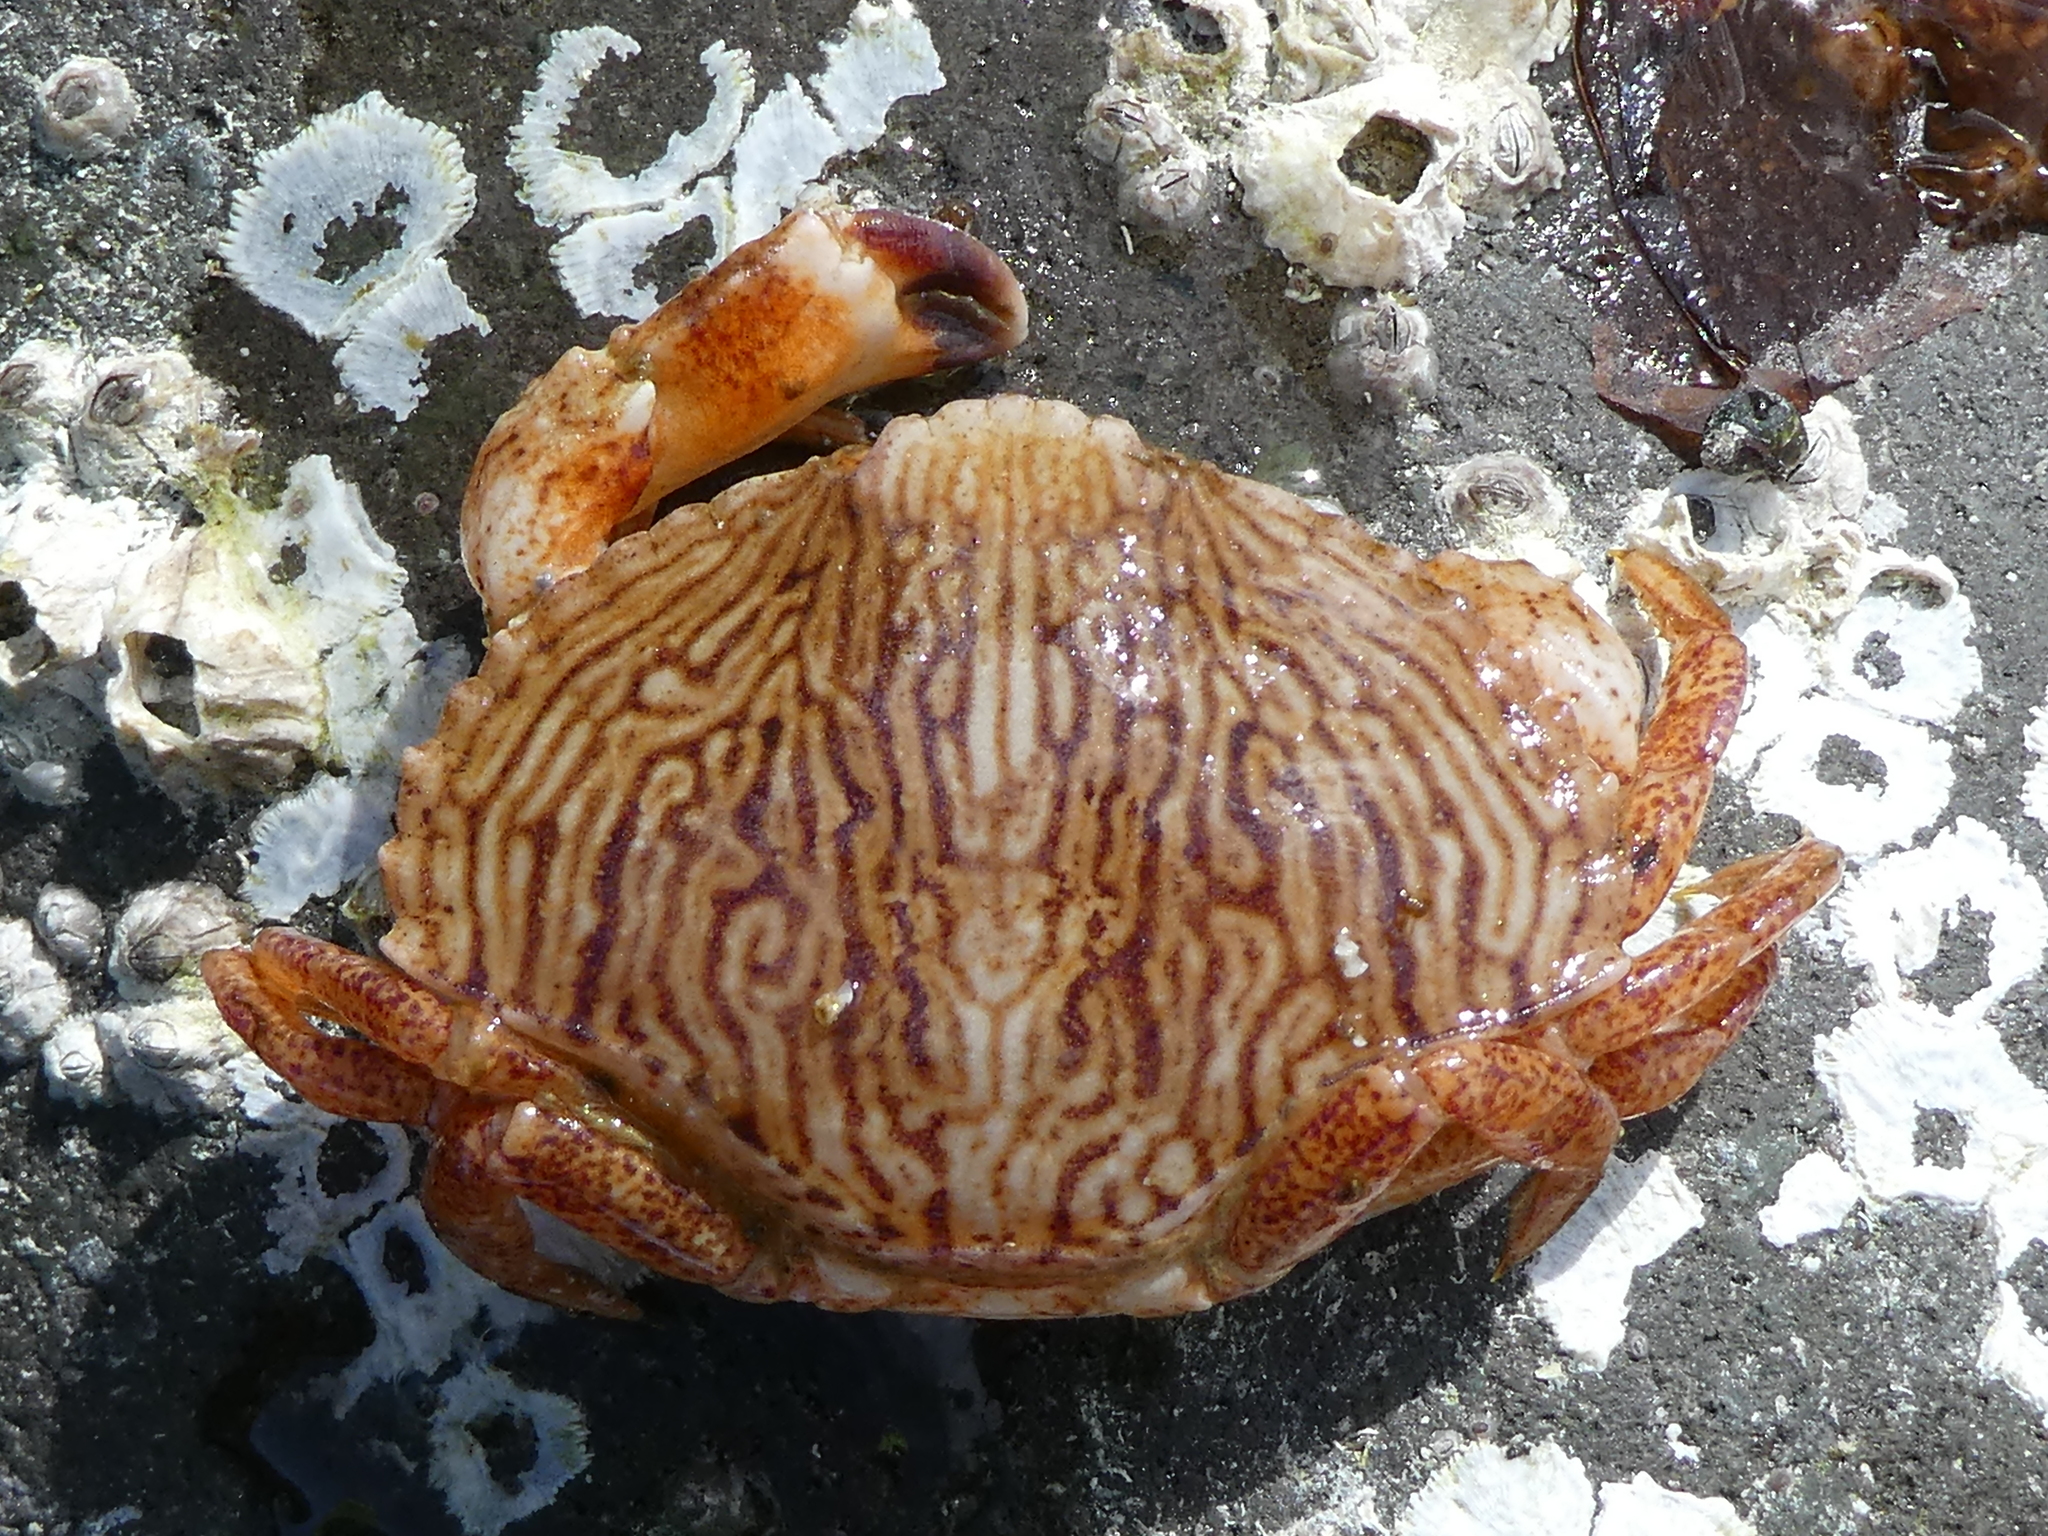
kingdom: Animalia
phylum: Arthropoda
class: Malacostraca
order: Decapoda
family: Cancridae
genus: Cancer
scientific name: Cancer productus
